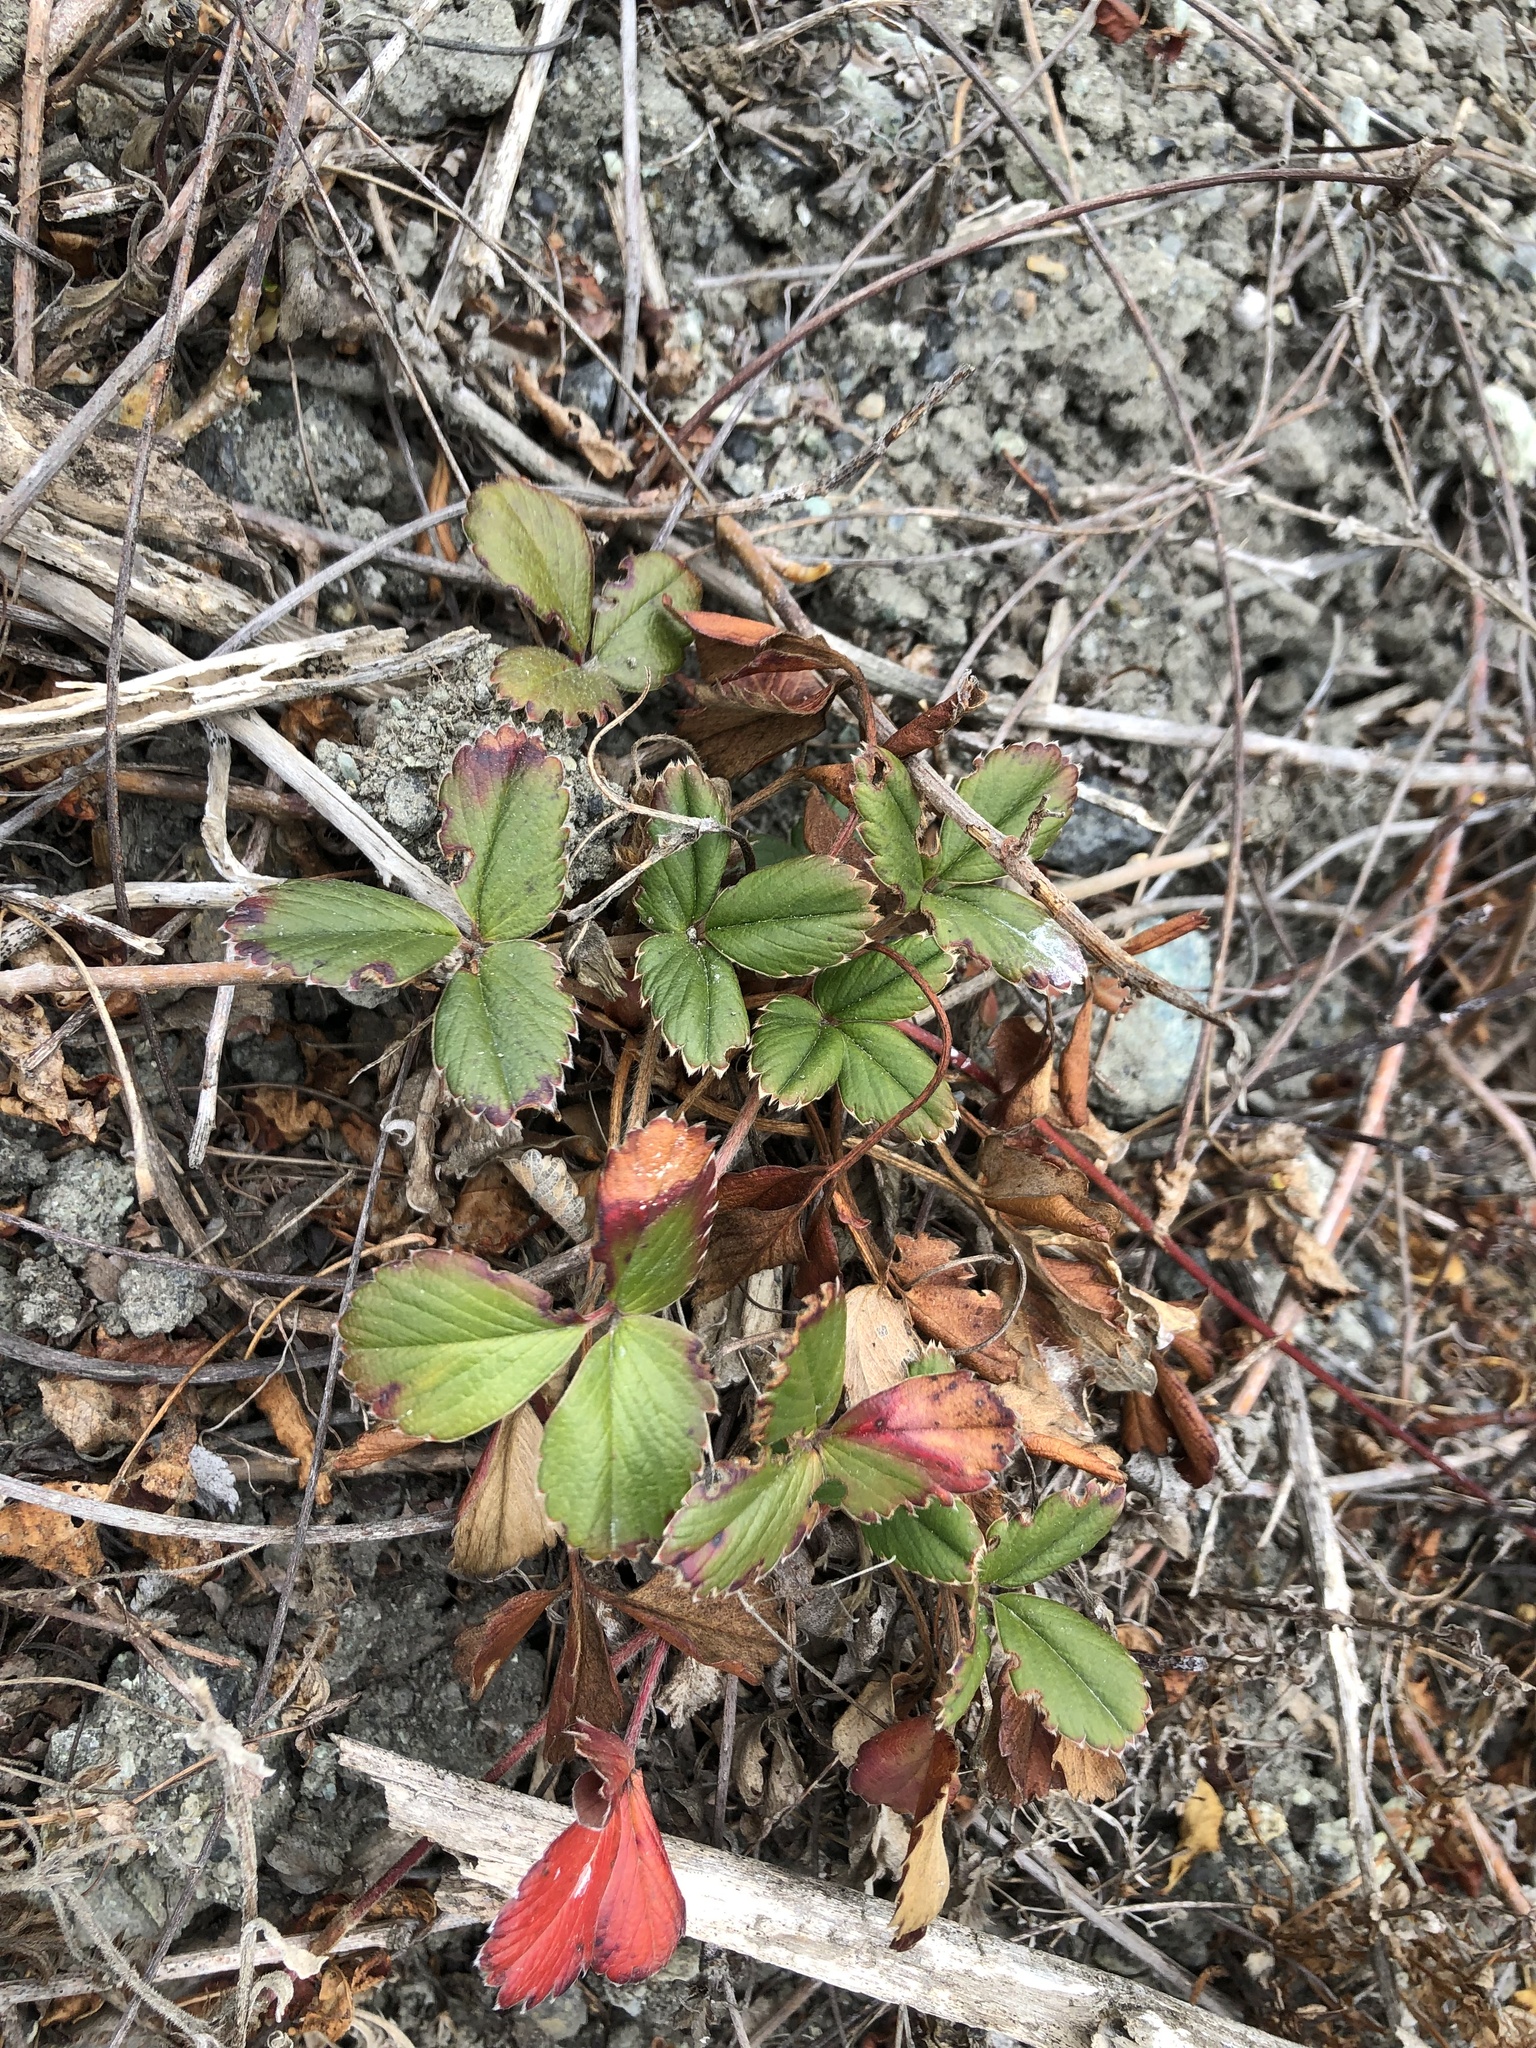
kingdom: Plantae
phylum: Tracheophyta
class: Magnoliopsida
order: Rosales
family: Rosaceae
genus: Fragaria
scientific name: Fragaria chiloensis
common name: Beach strawberry
